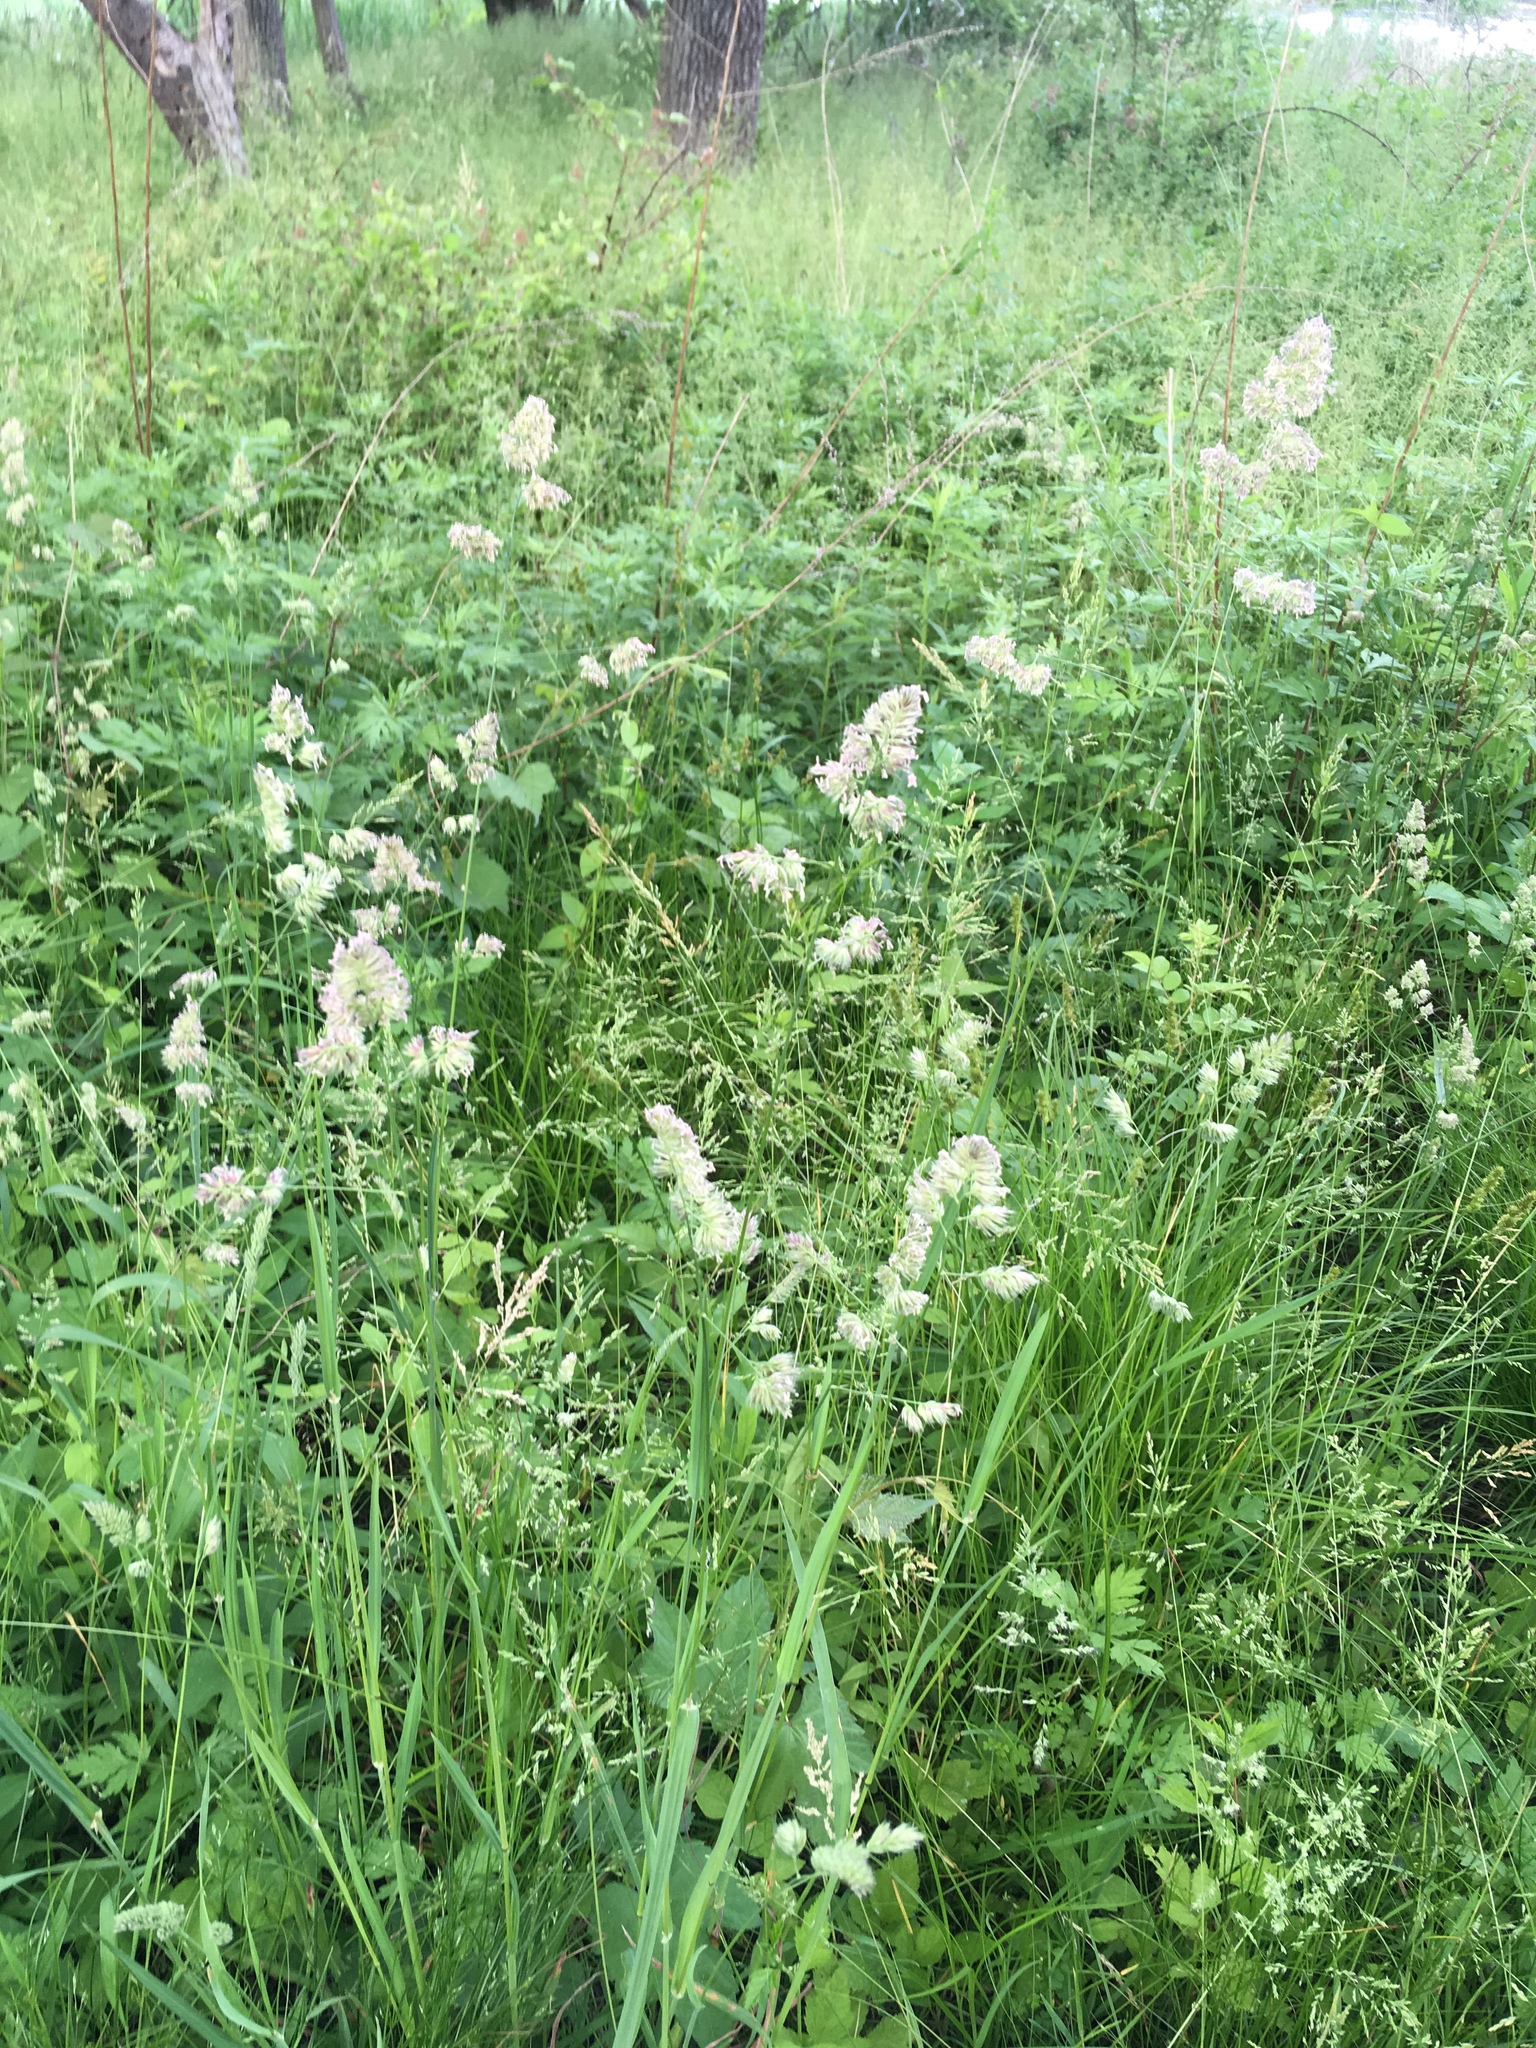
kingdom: Plantae
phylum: Tracheophyta
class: Liliopsida
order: Poales
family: Poaceae
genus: Dactylis
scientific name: Dactylis glomerata
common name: Orchardgrass
